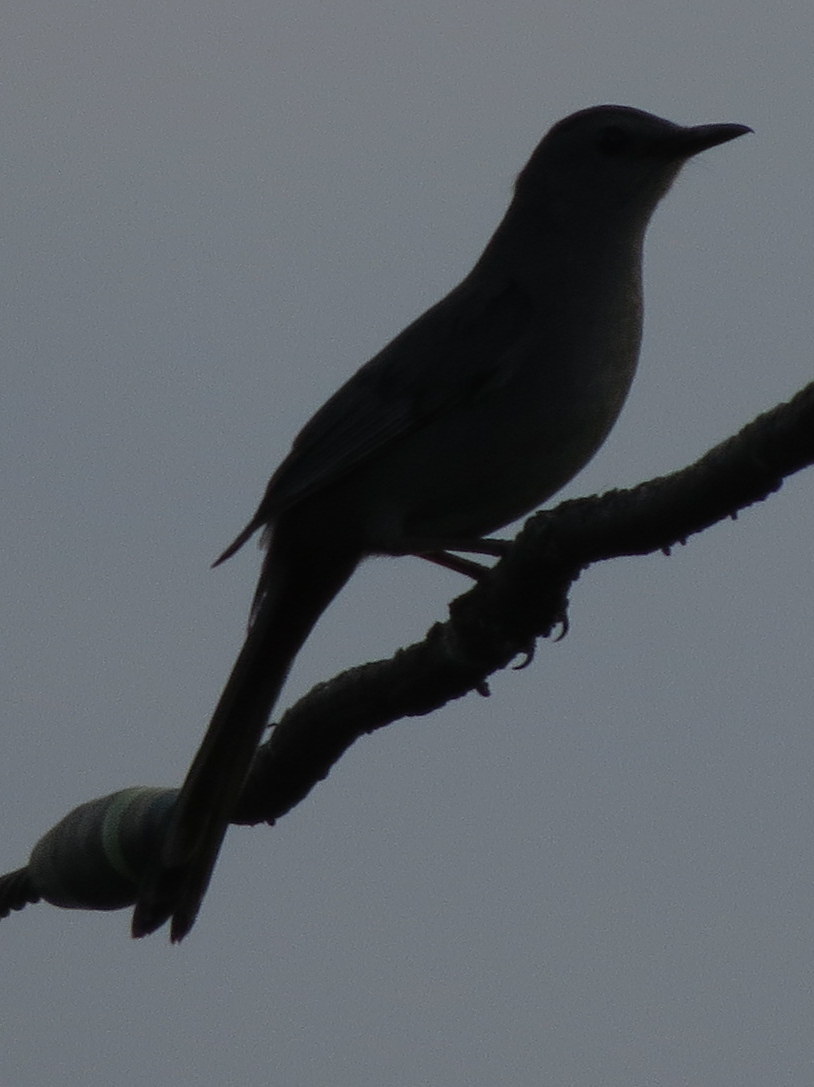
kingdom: Animalia
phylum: Chordata
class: Aves
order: Passeriformes
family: Mimidae
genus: Dumetella
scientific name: Dumetella carolinensis
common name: Gray catbird
